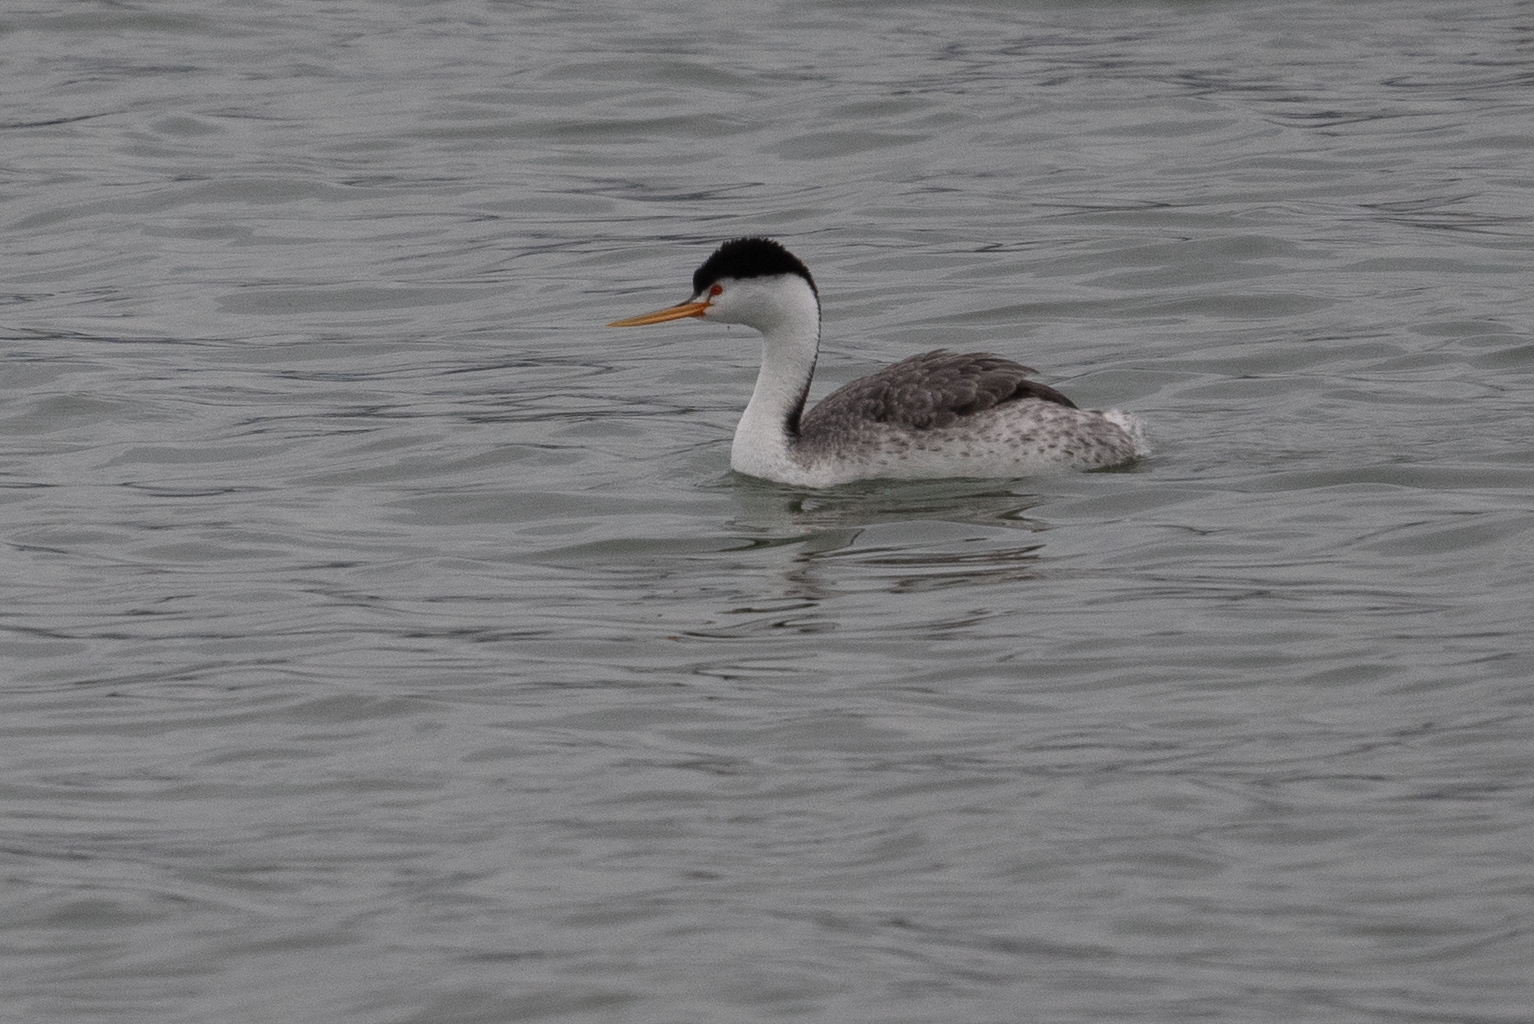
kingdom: Animalia
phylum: Chordata
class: Aves
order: Podicipediformes
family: Podicipedidae
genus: Aechmophorus
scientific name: Aechmophorus clarkii
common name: Clark's grebe
